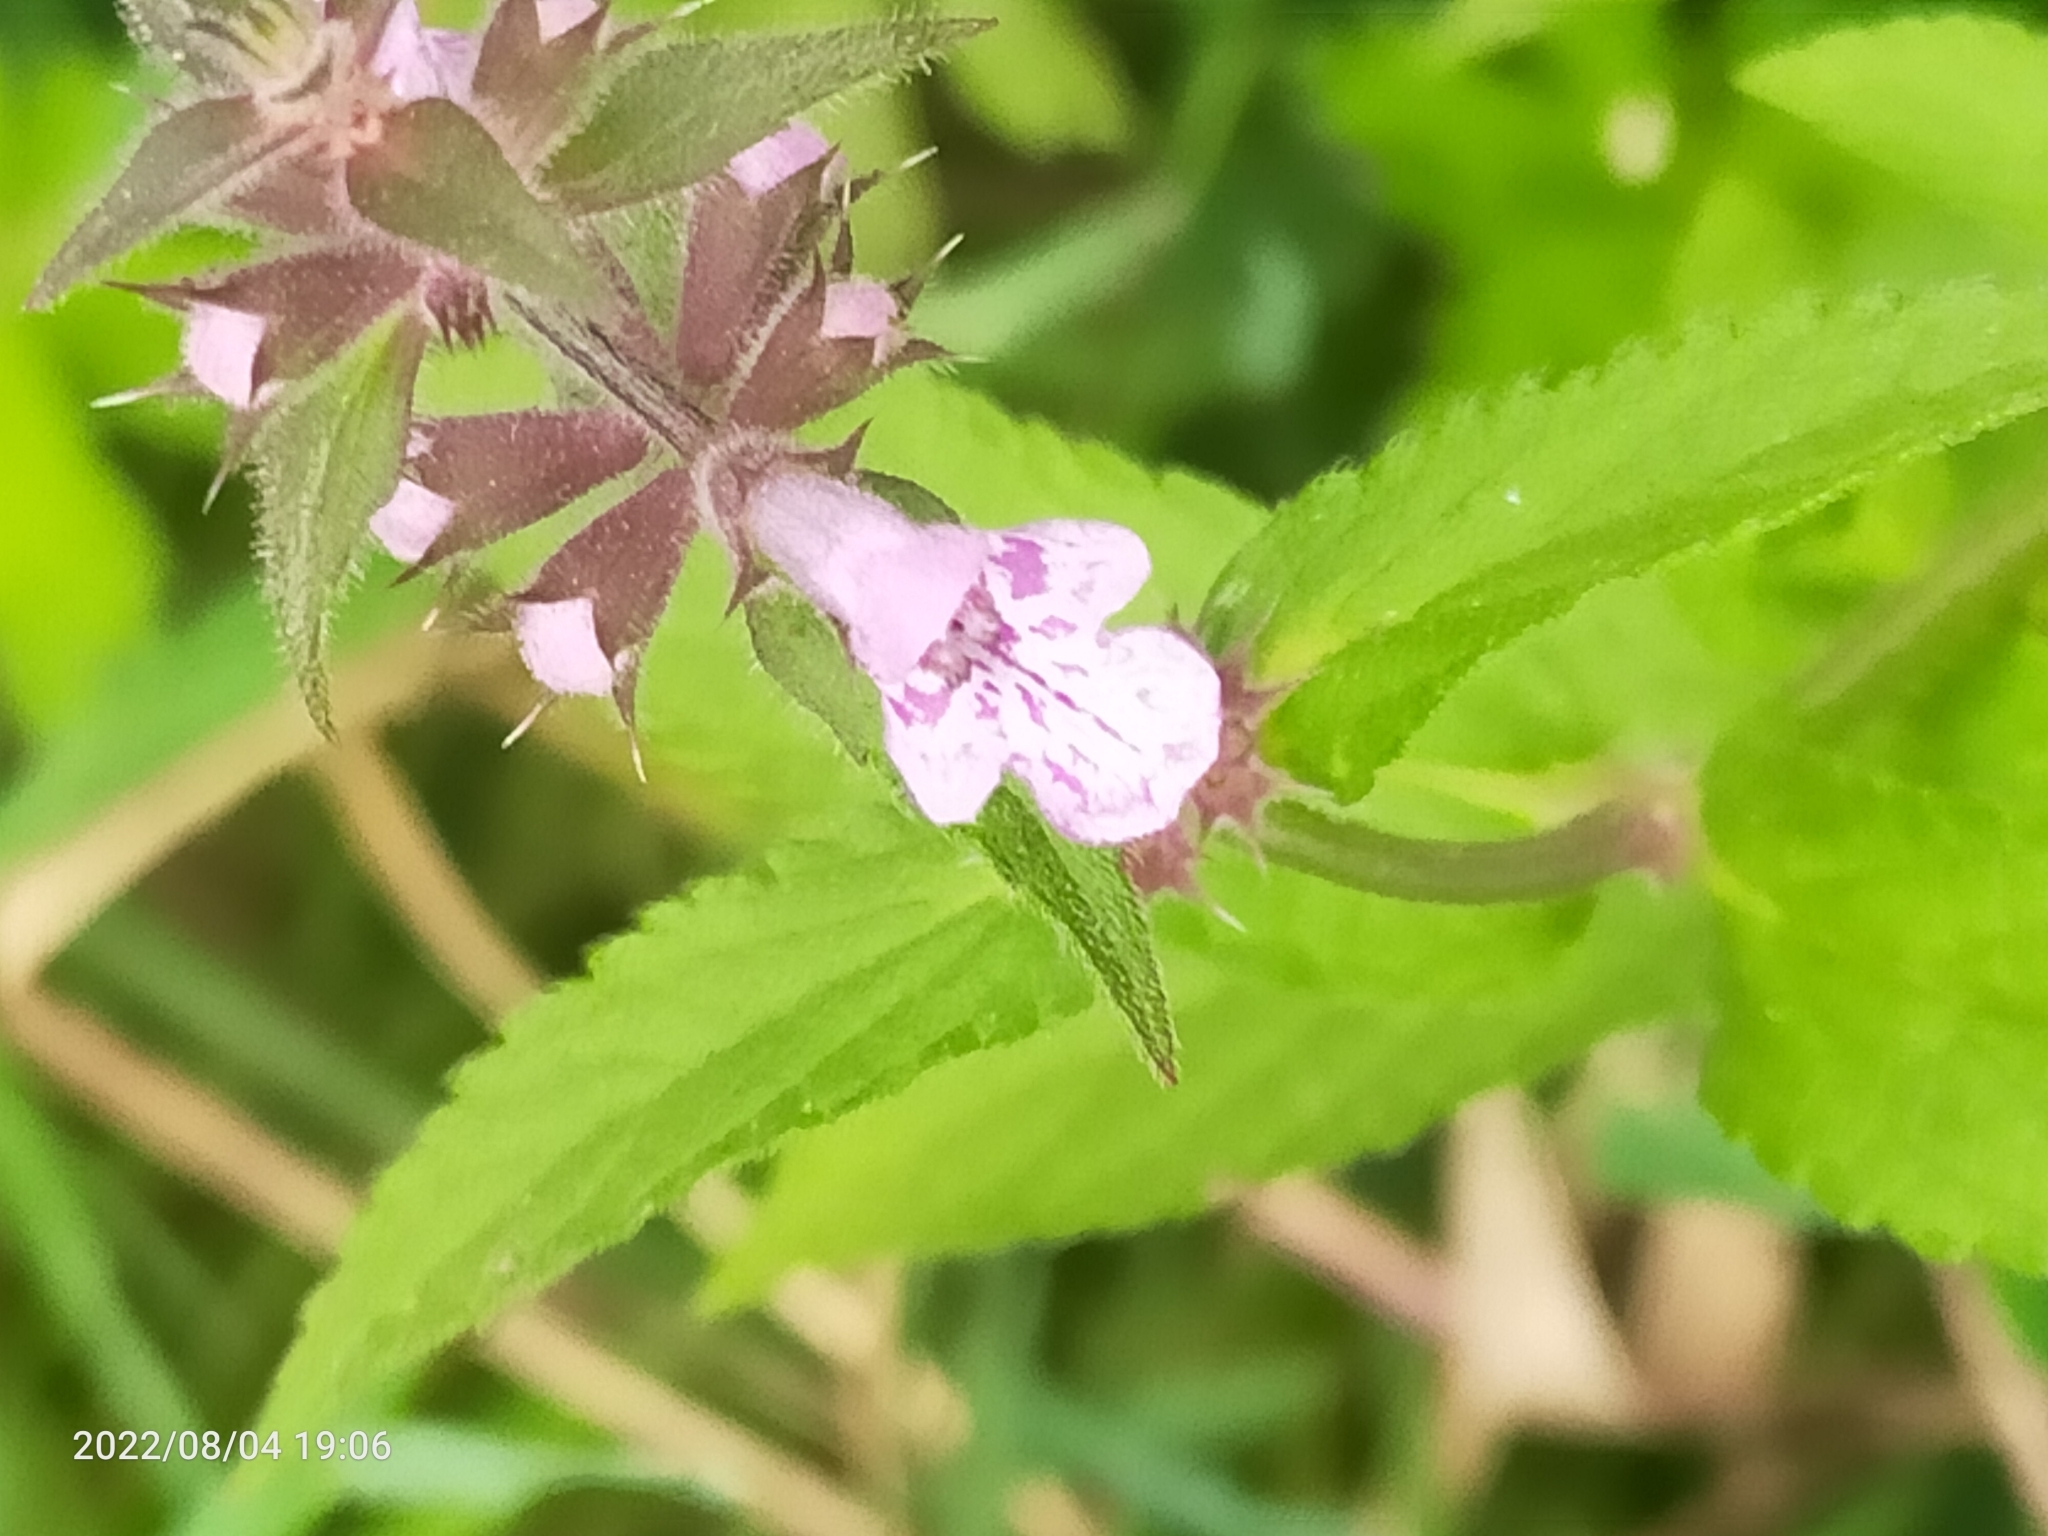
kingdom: Plantae
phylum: Tracheophyta
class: Magnoliopsida
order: Lamiales
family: Lamiaceae
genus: Stachys
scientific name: Stachys palustris
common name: Marsh woundwort
